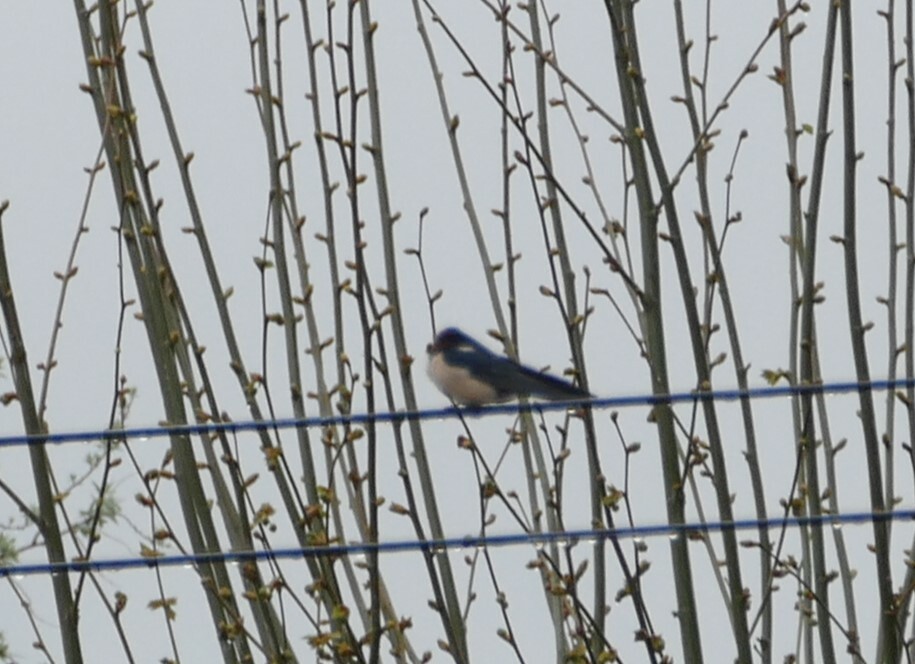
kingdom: Animalia
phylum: Chordata
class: Aves
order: Passeriformes
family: Hirundinidae
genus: Hirundo
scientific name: Hirundo rustica
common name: Barn swallow
